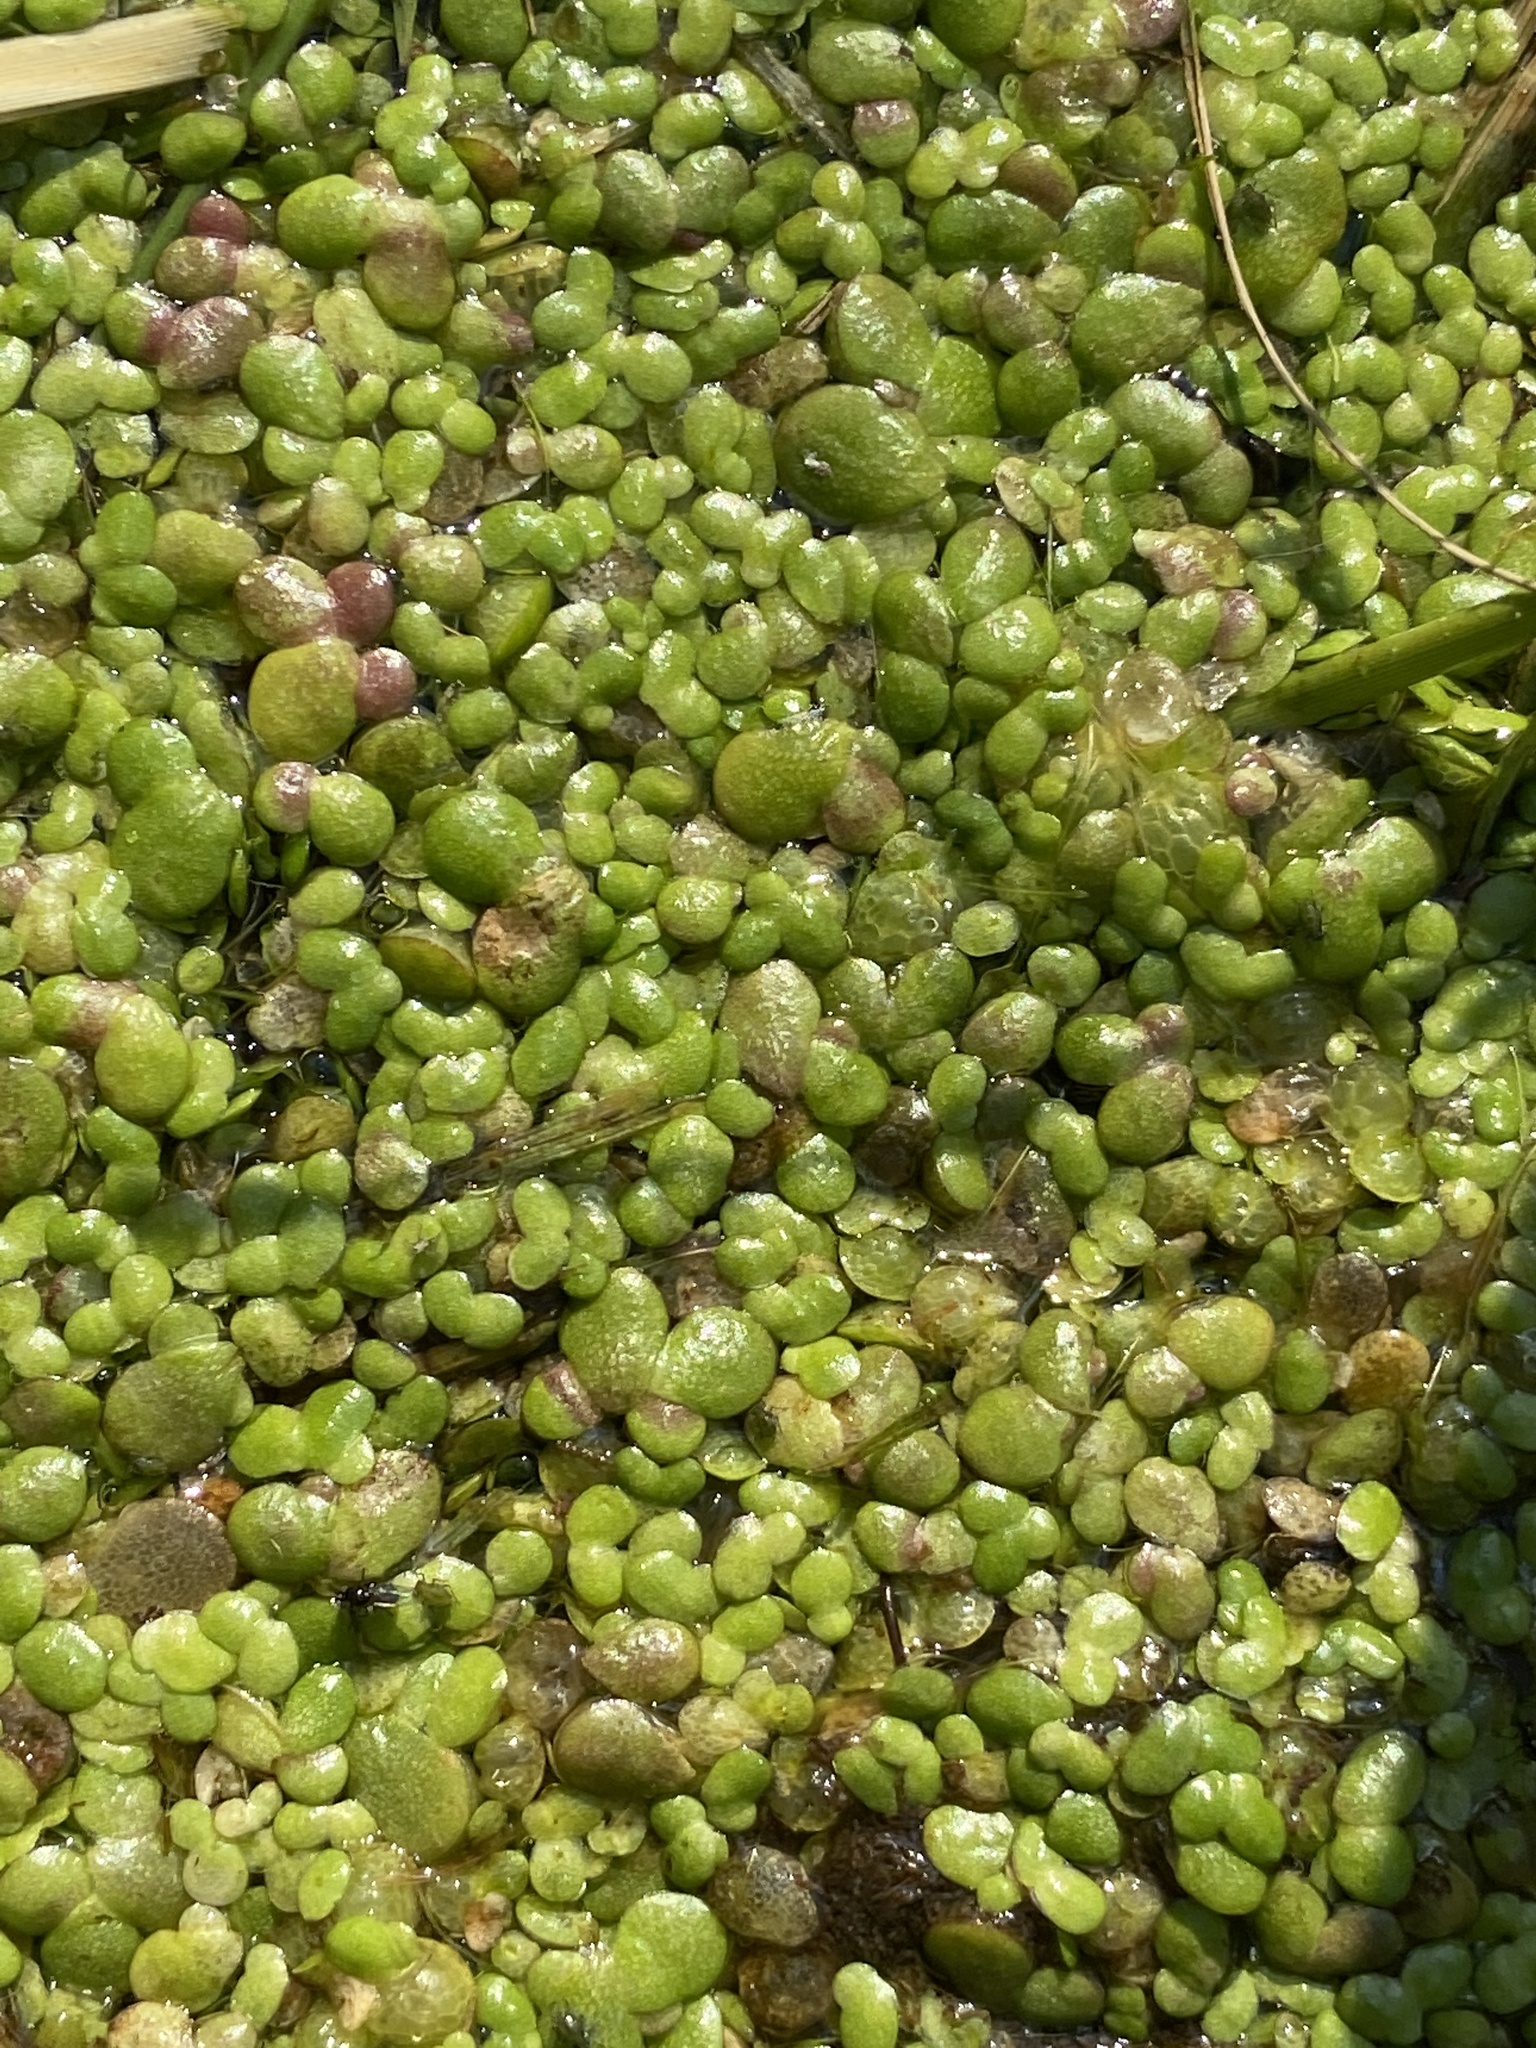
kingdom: Plantae
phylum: Tracheophyta
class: Liliopsida
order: Alismatales
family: Araceae
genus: Lemna
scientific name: Lemna minor
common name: Common duckweed
